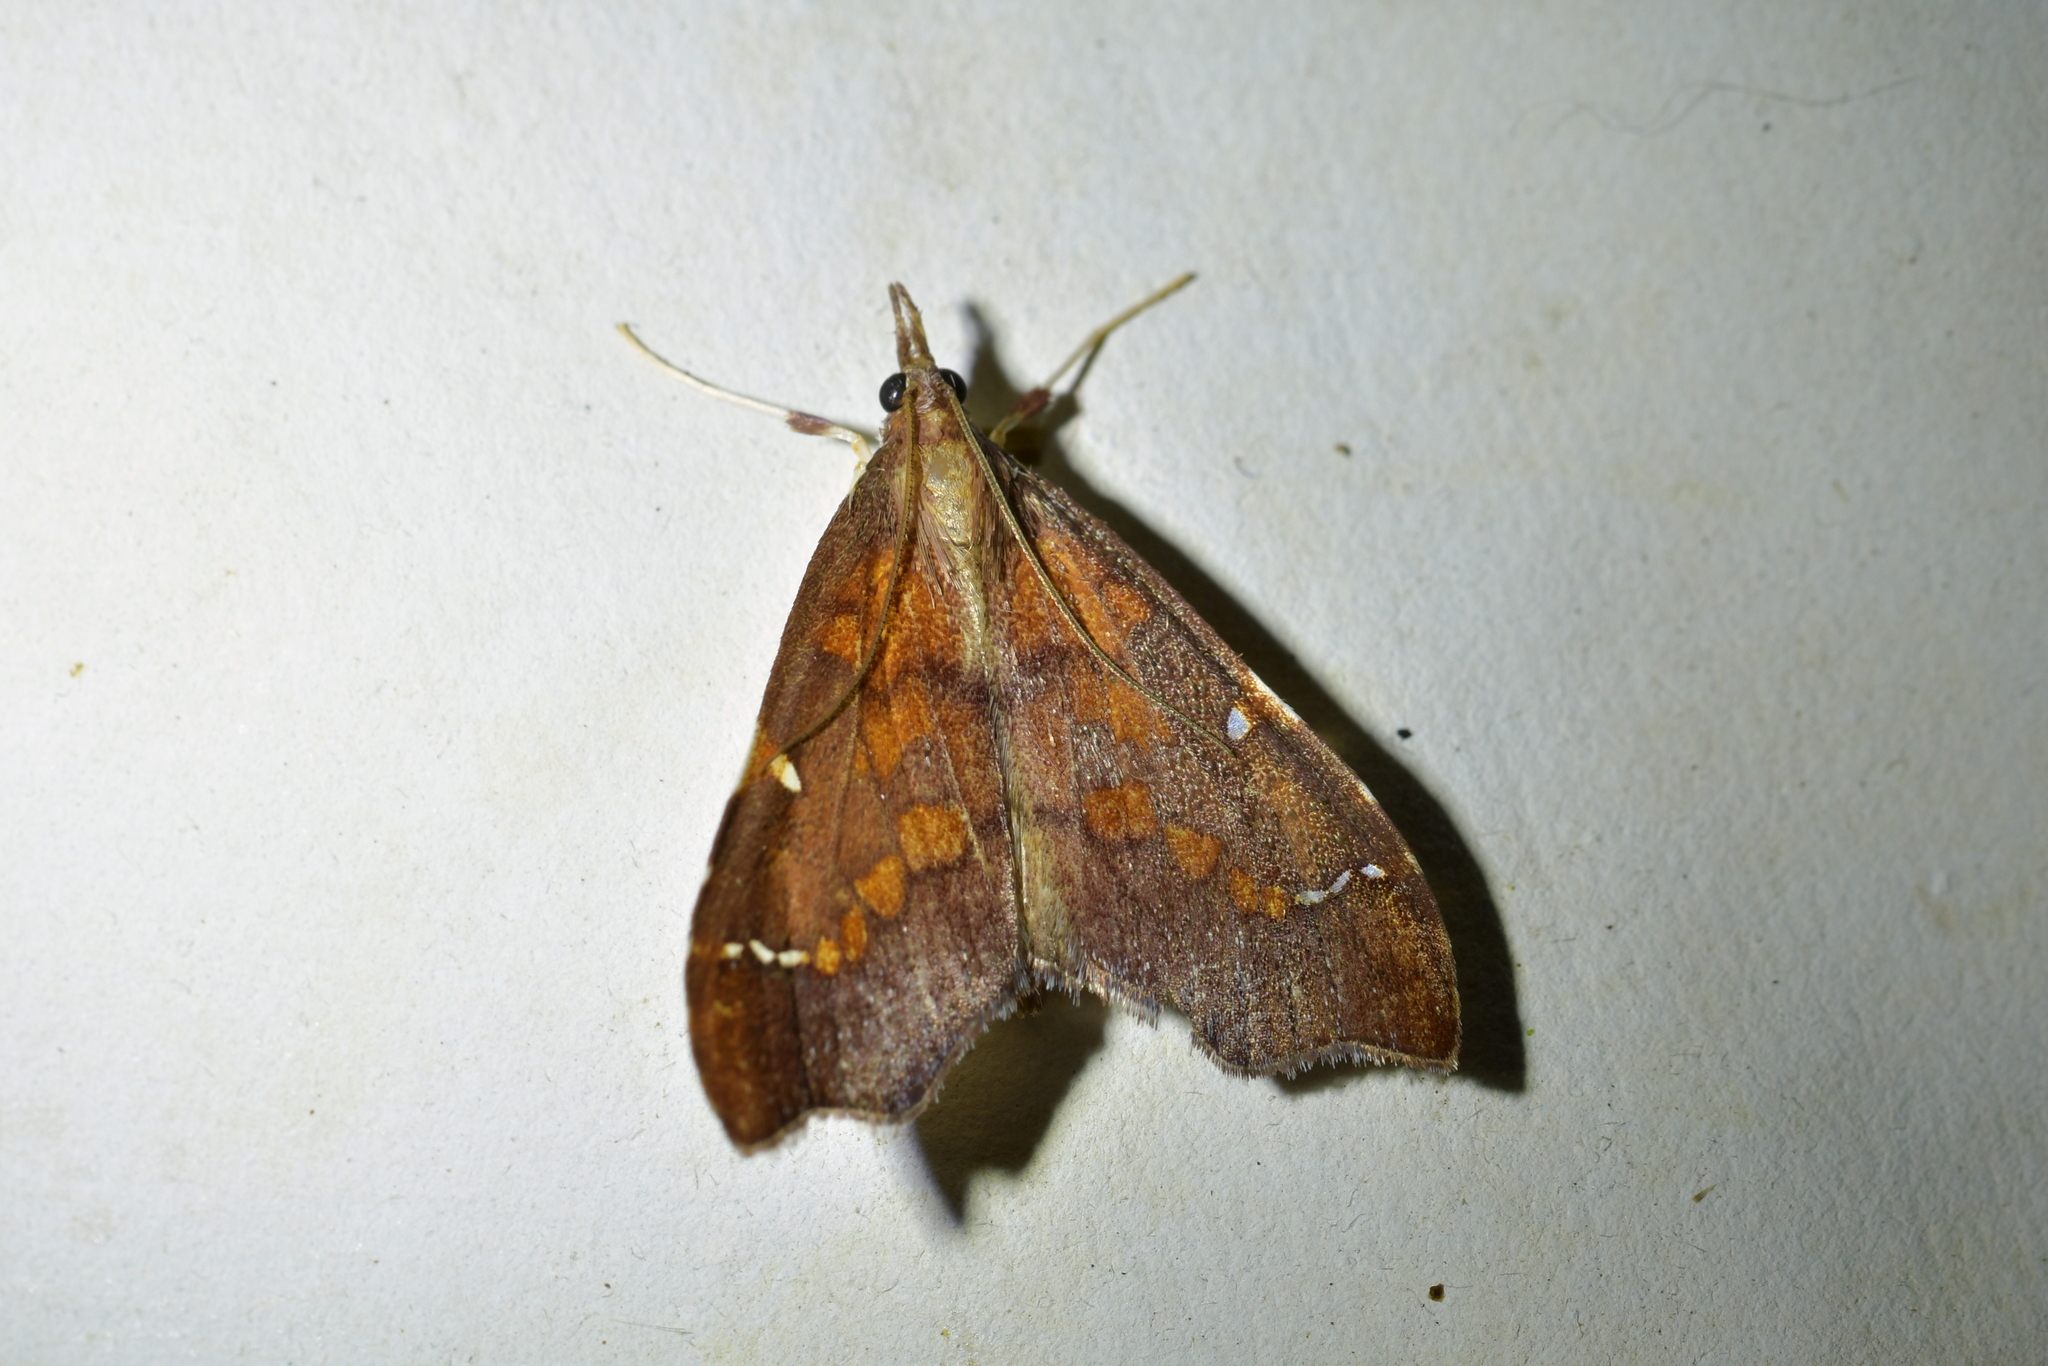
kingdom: Animalia
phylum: Arthropoda
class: Insecta
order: Lepidoptera
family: Crambidae
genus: Deana
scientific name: Deana hybreasalis
